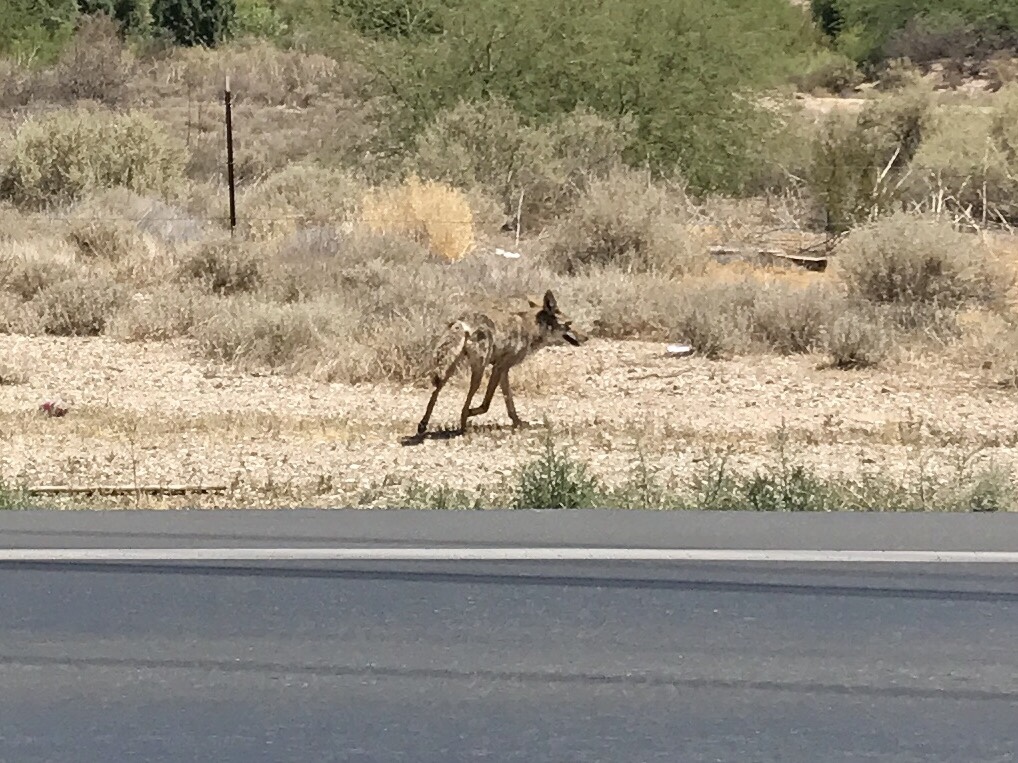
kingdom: Animalia
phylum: Chordata
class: Mammalia
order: Carnivora
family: Canidae
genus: Canis
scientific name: Canis latrans
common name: Coyote
